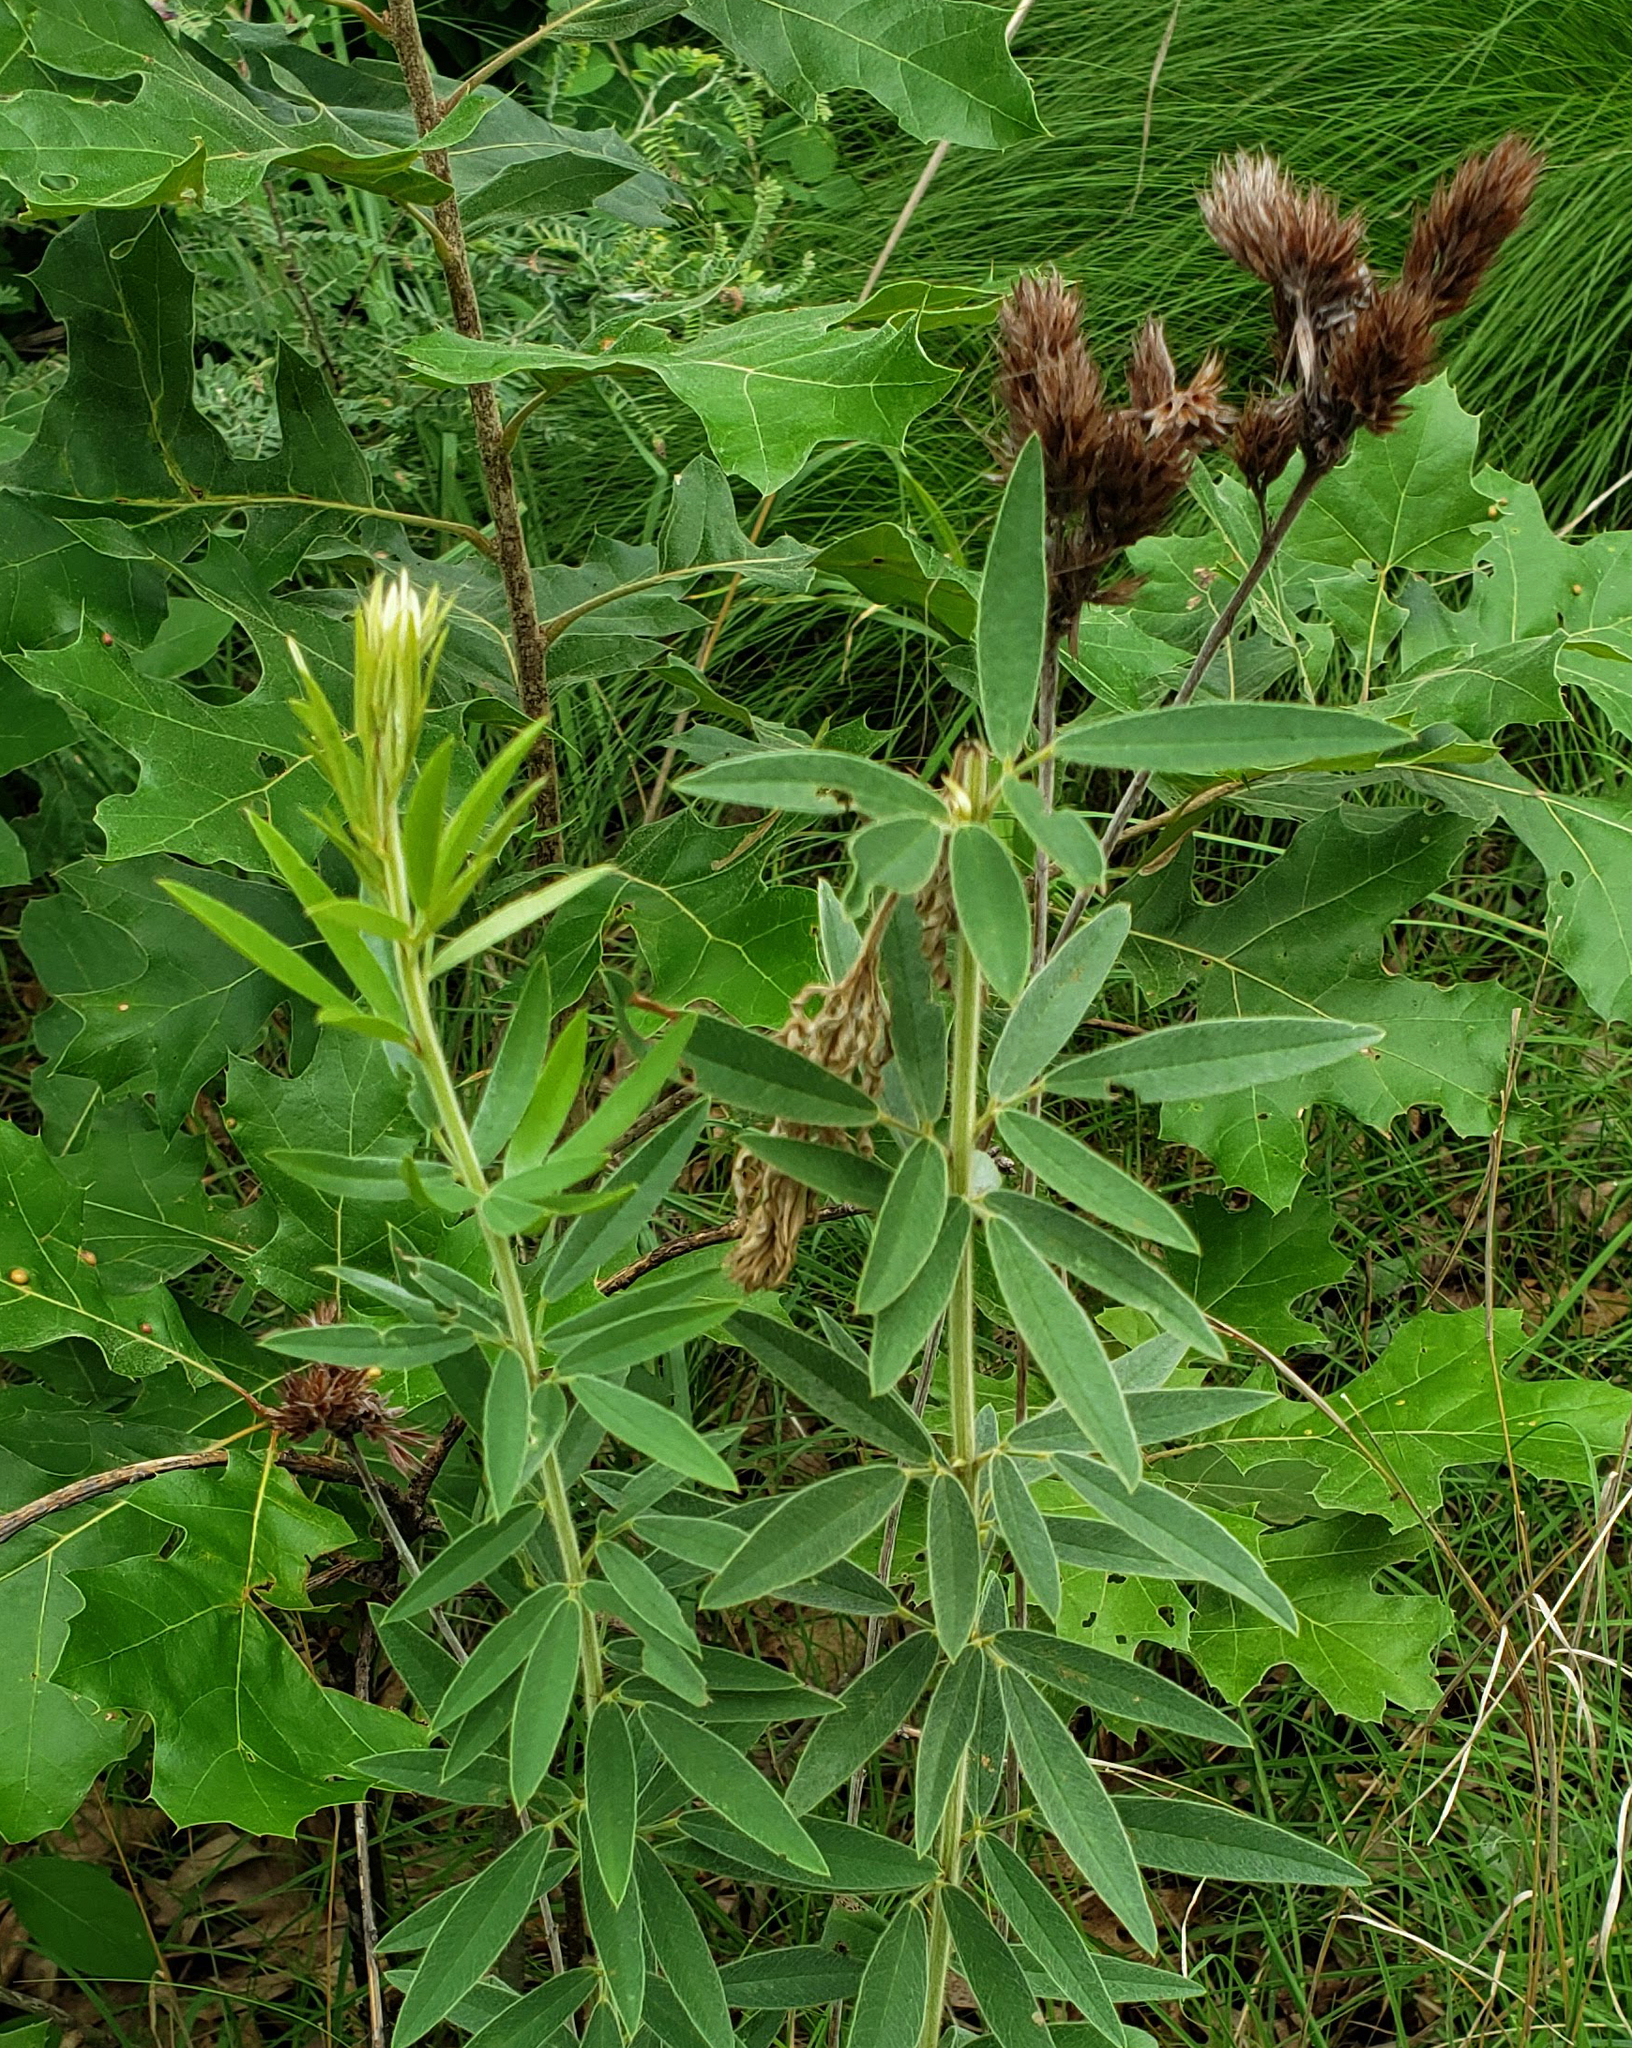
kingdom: Plantae
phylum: Tracheophyta
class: Magnoliopsida
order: Fabales
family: Fabaceae
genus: Lespedeza
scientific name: Lespedeza capitata
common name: Dusty clover
